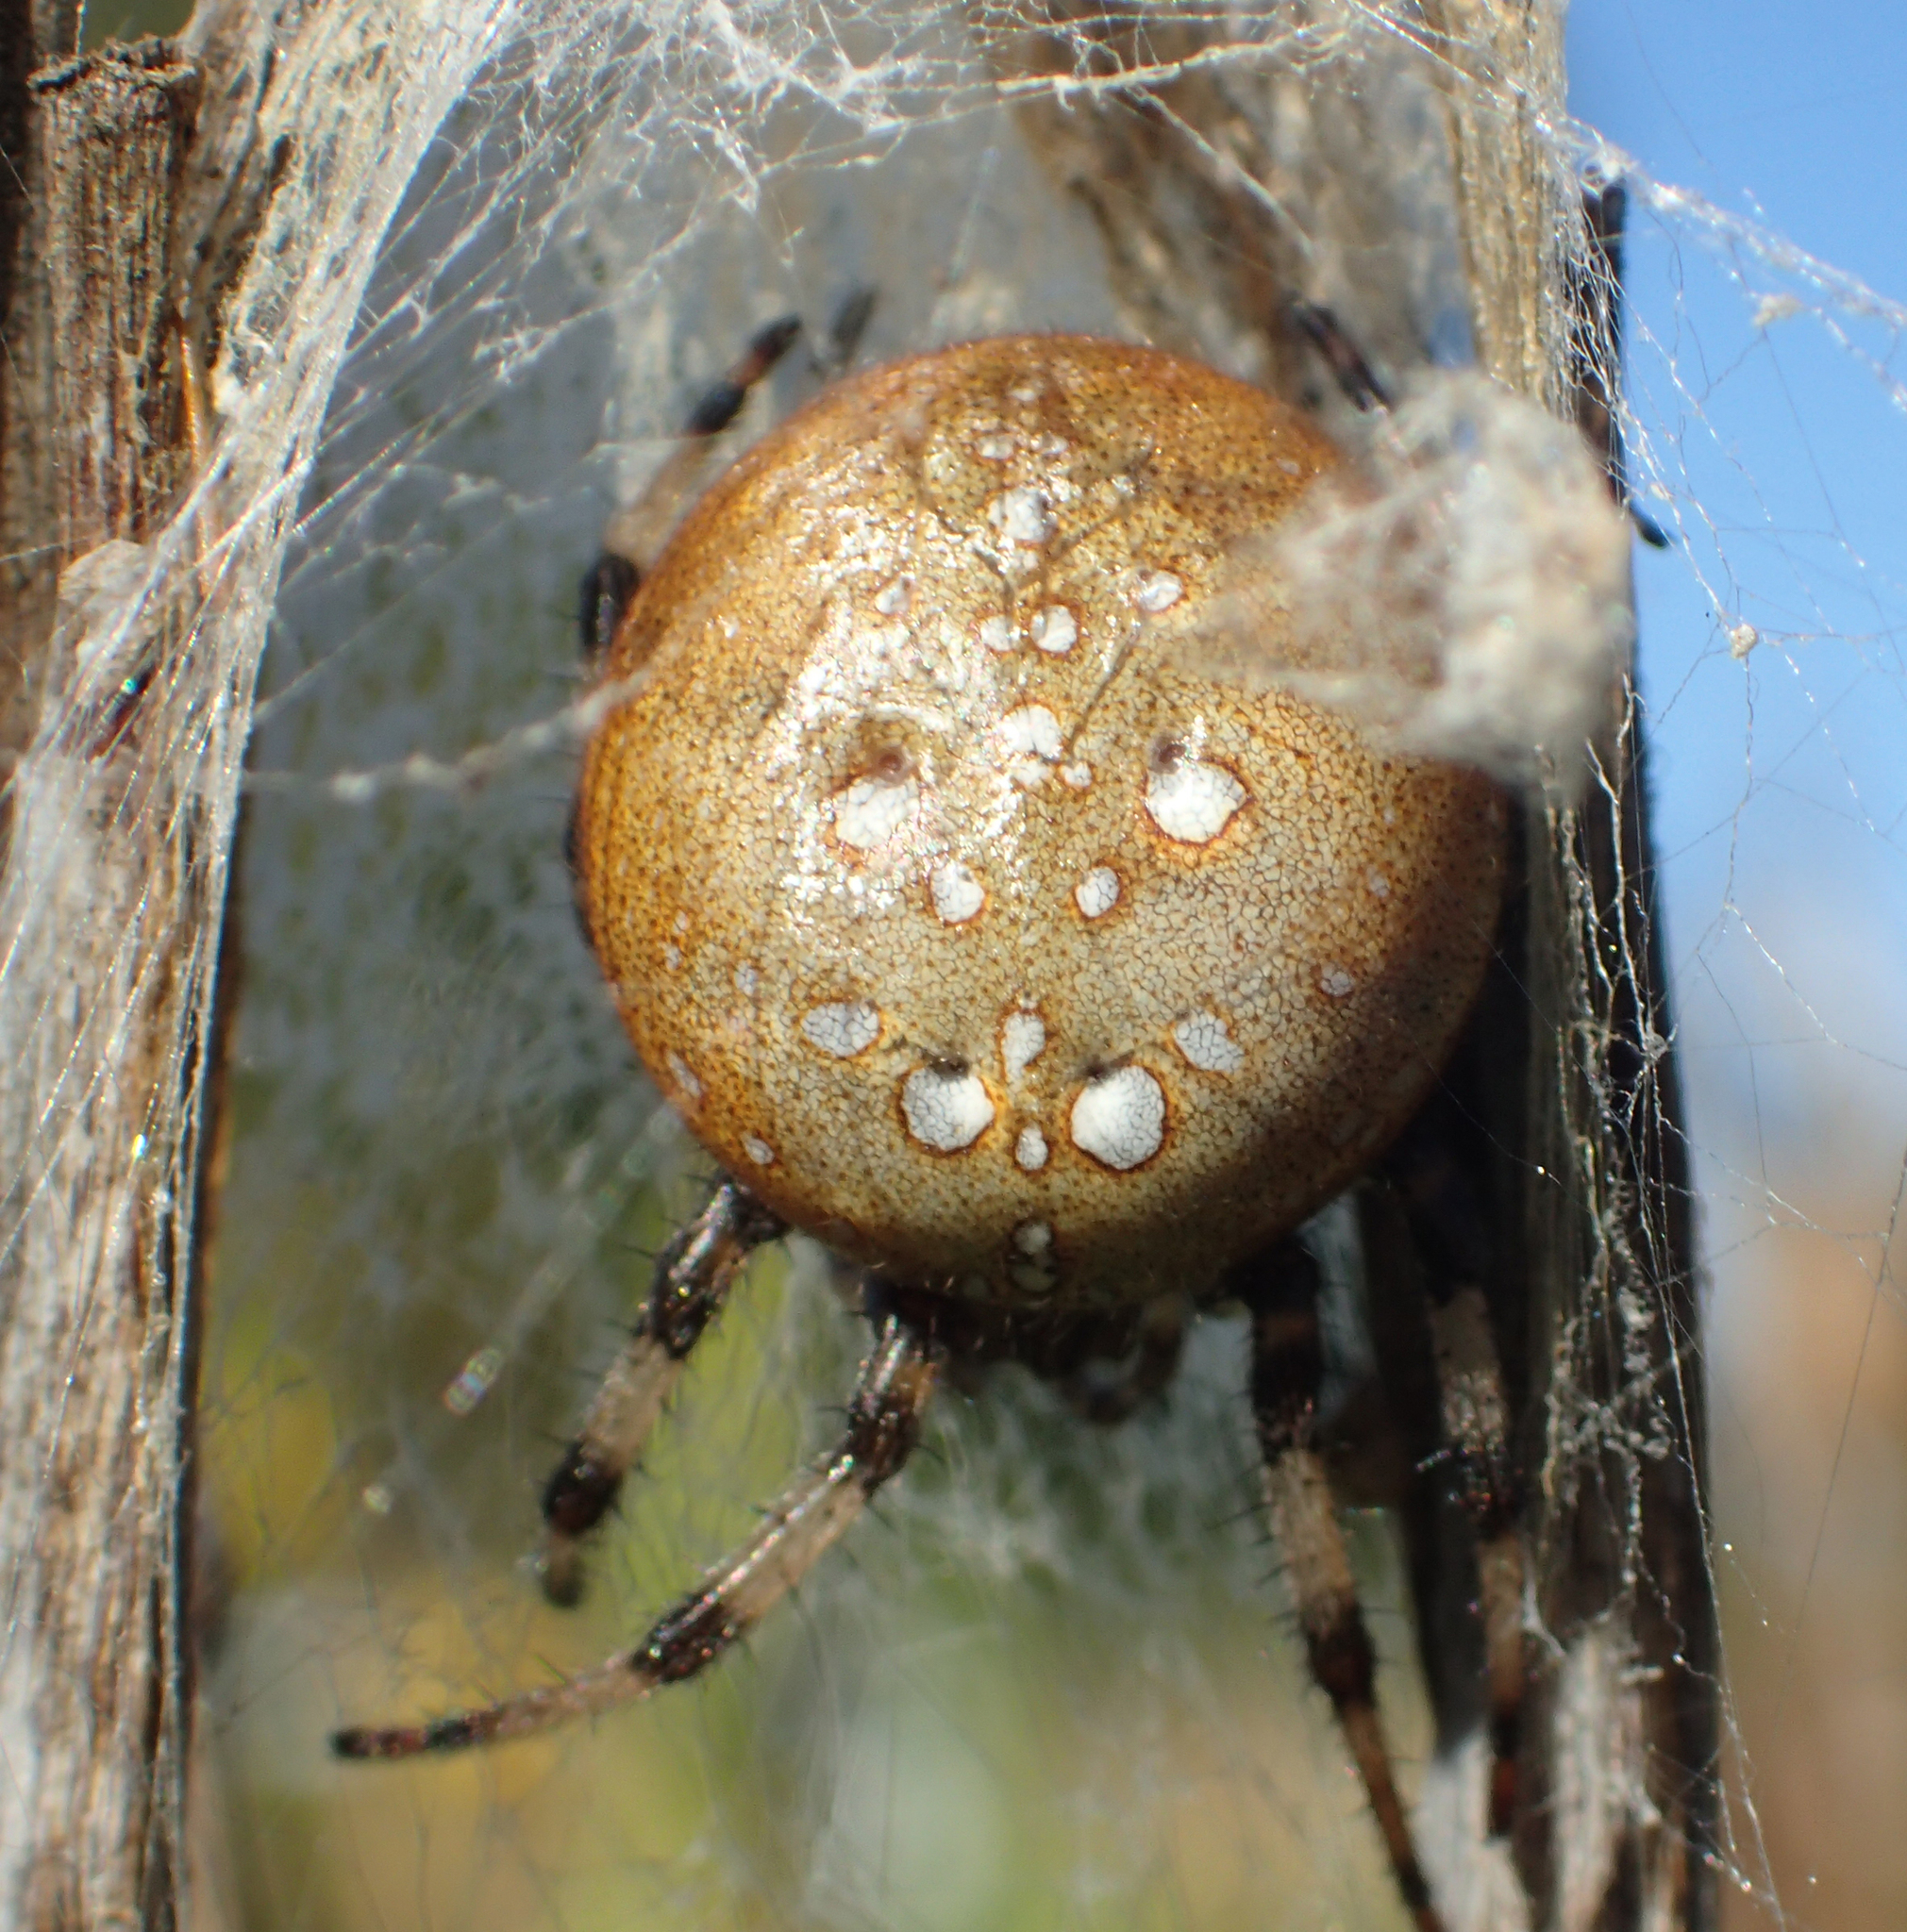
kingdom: Animalia
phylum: Arthropoda
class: Arachnida
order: Araneae
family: Araneidae
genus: Araneus
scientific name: Araneus trifolium
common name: Shamrock orbweaver
